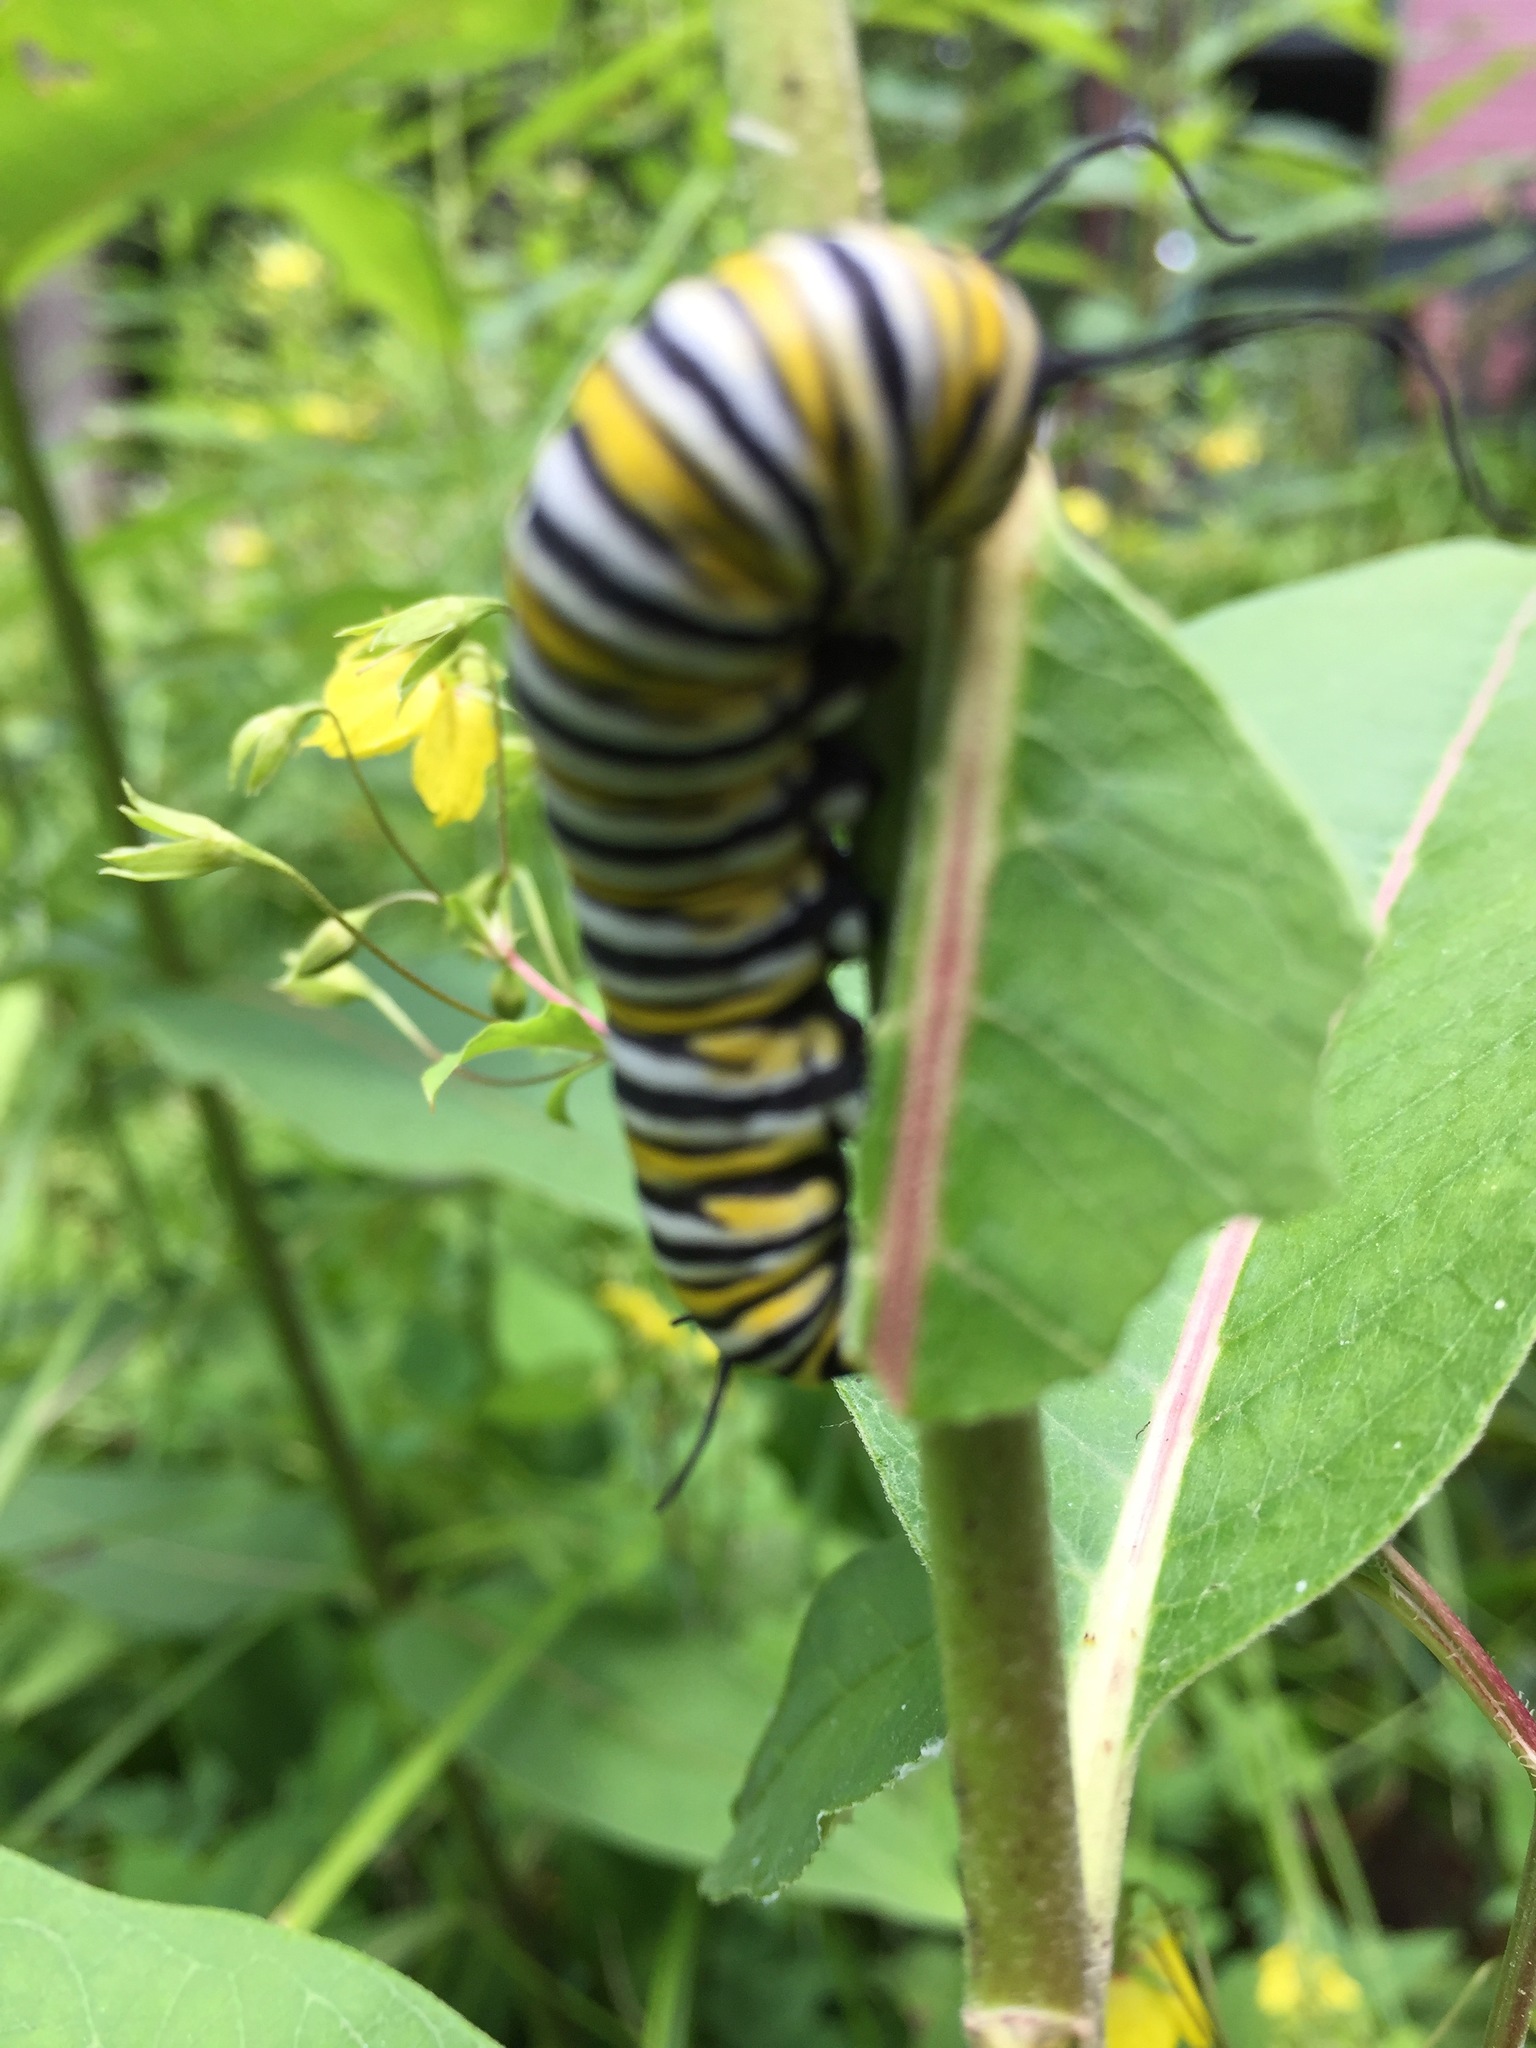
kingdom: Animalia
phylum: Arthropoda
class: Insecta
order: Lepidoptera
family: Nymphalidae
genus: Danaus
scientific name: Danaus plexippus
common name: Monarch
